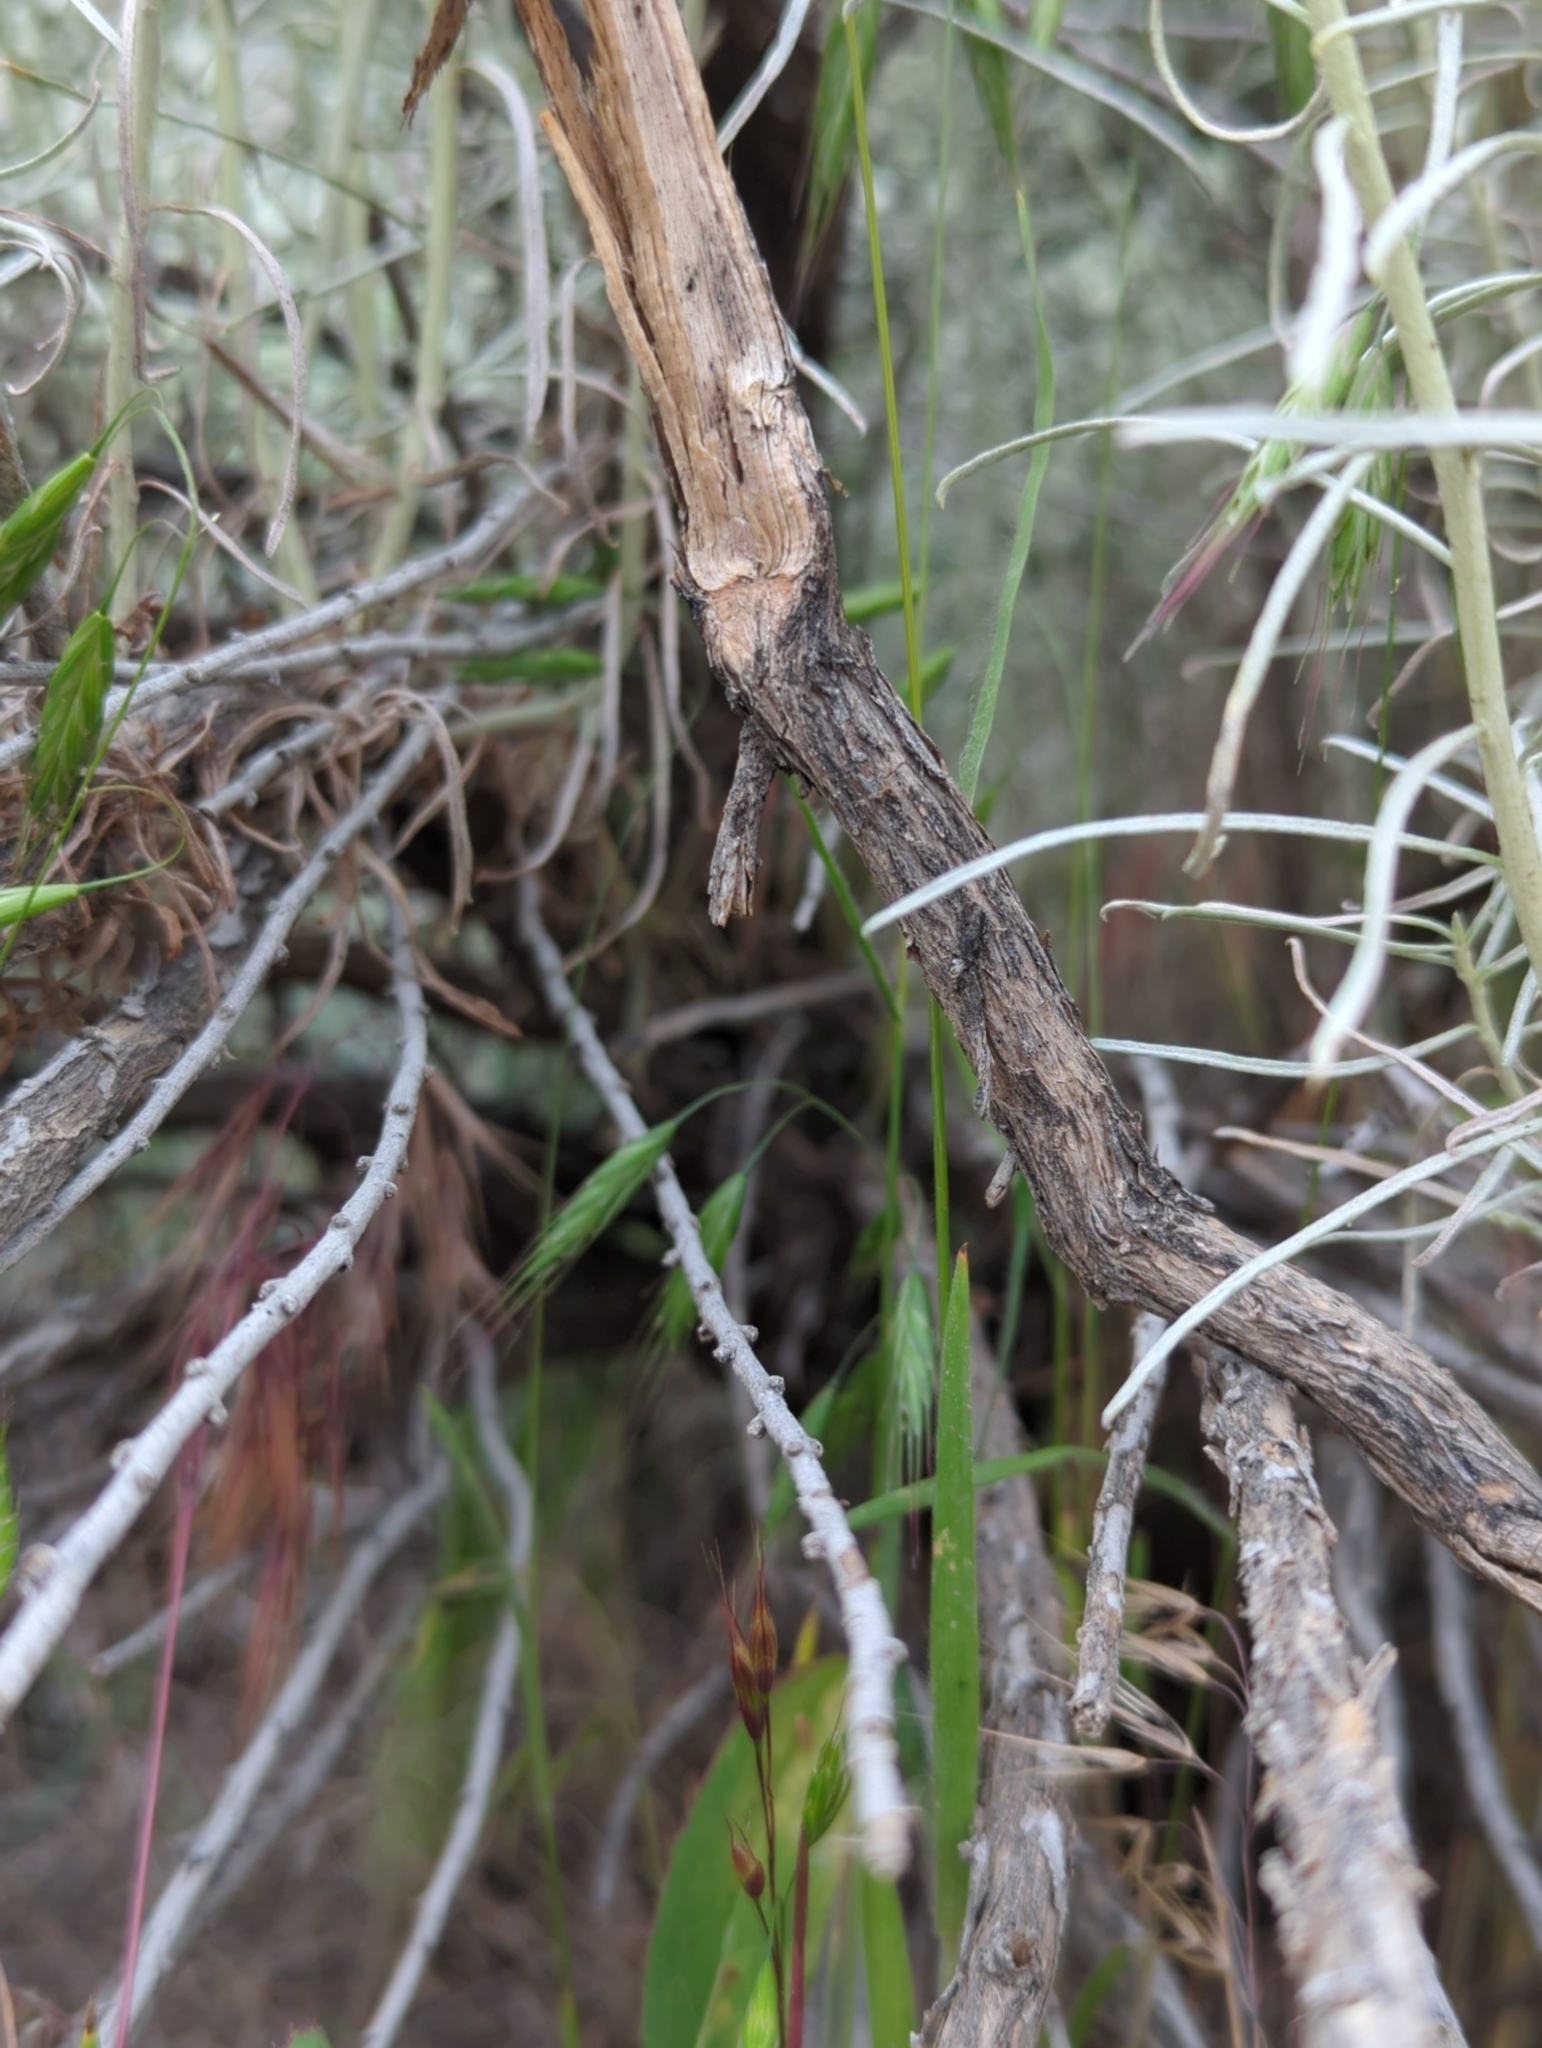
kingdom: Plantae
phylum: Tracheophyta
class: Magnoliopsida
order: Asterales
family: Asteraceae
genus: Ericameria
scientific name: Ericameria nauseosa
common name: Rubber rabbitbrush
